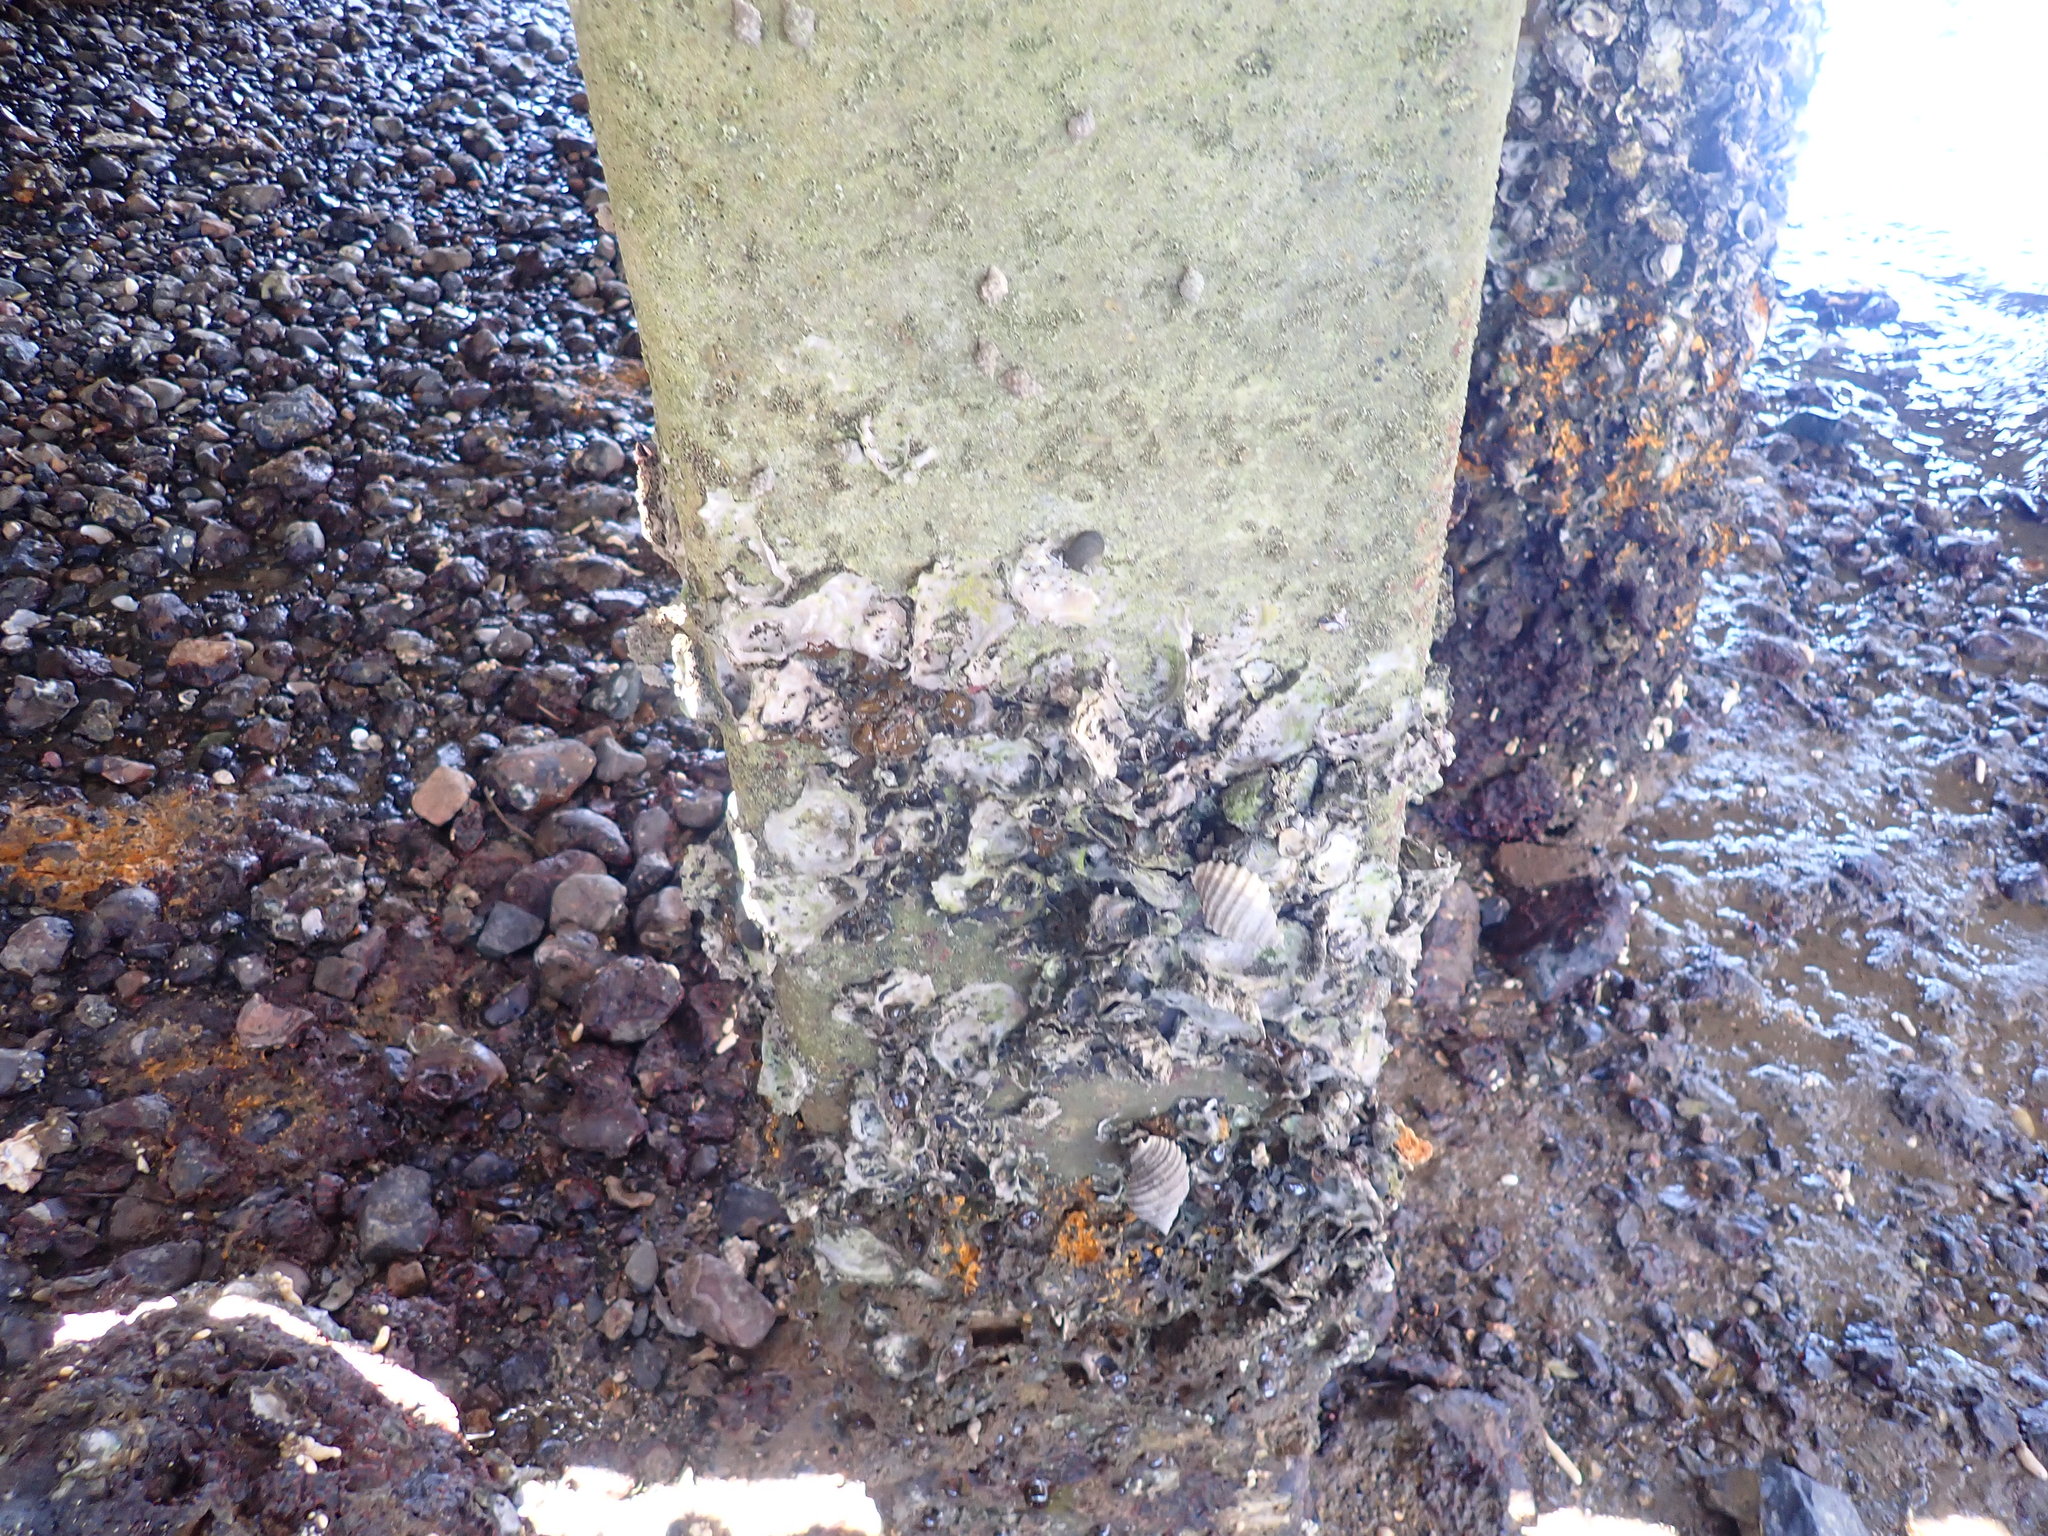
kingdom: Animalia
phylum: Mollusca
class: Gastropoda
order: Neogastropoda
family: Muricidae
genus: Dicathais
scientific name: Dicathais orbita
